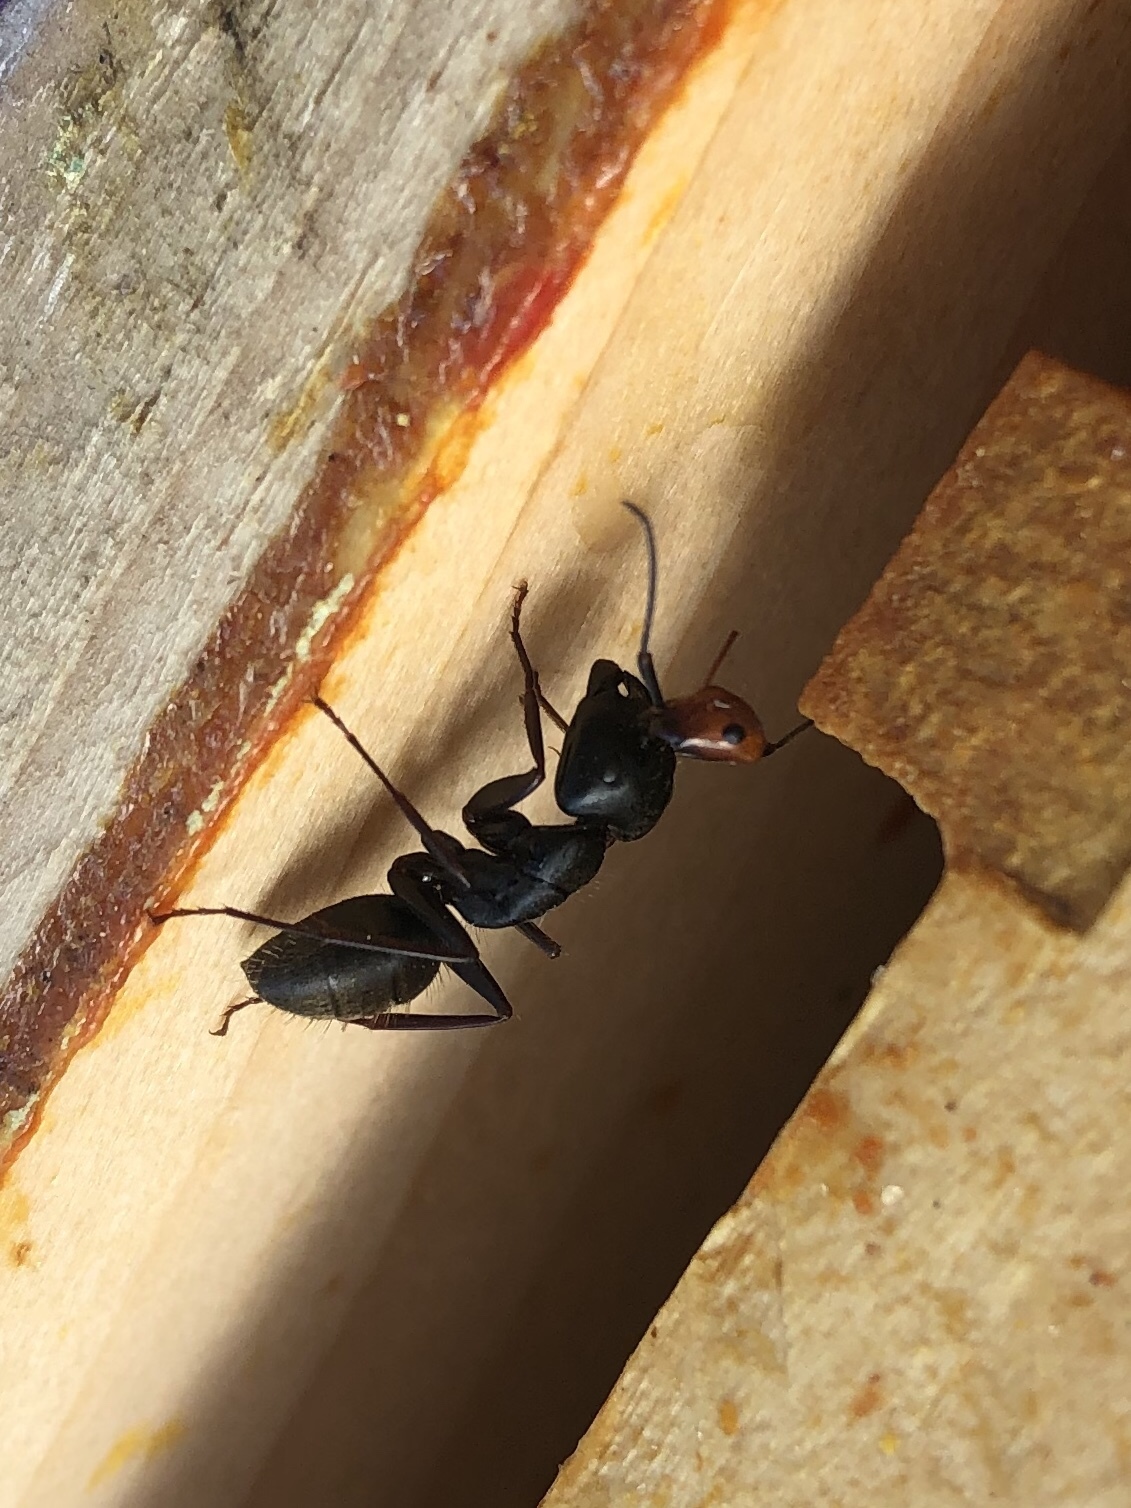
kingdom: Animalia
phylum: Arthropoda
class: Insecta
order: Hymenoptera
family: Formicidae
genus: Camponotus
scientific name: Camponotus pennsylvanicus
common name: Black carpenter ant
